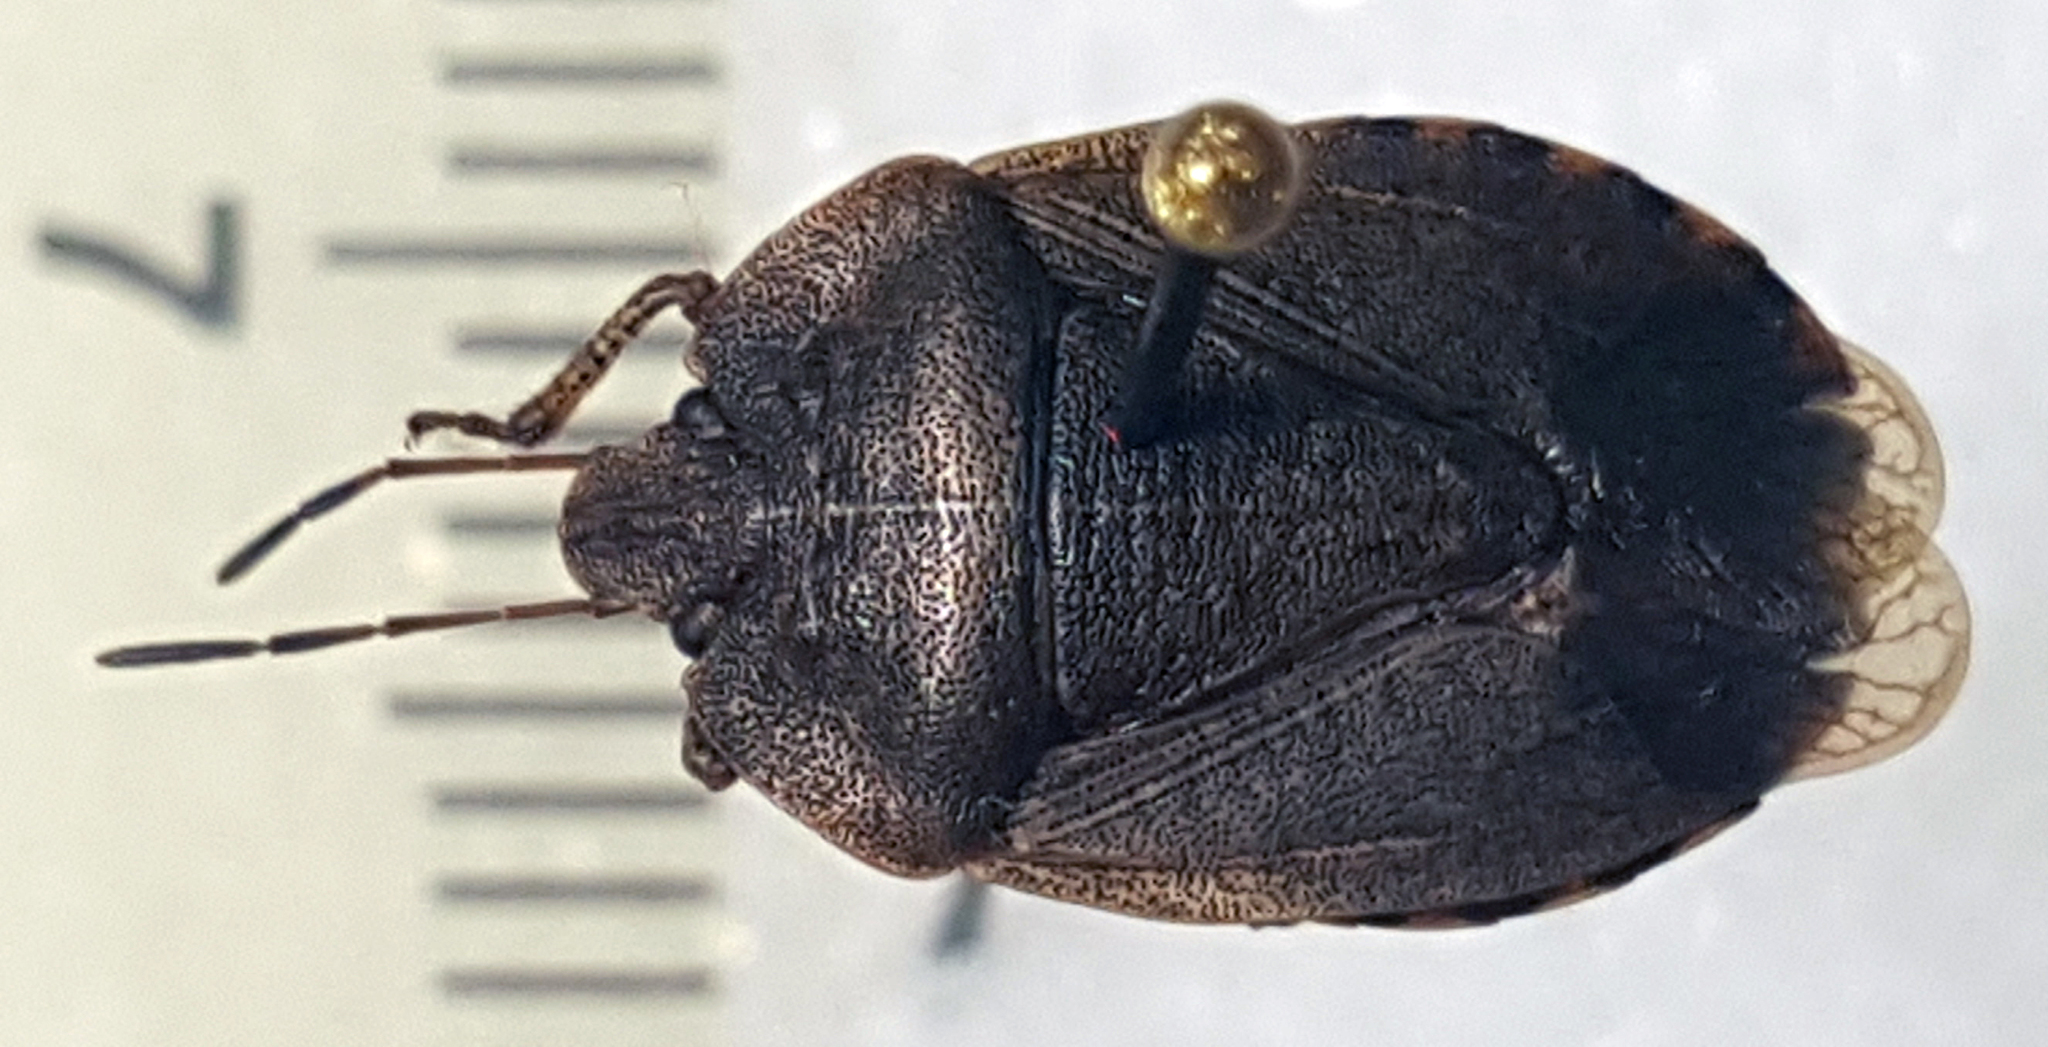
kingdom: Animalia
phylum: Arthropoda
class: Insecta
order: Hemiptera
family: Pentatomidae
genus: Menecles
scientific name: Menecles insertus
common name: Elf shoe stink bug
